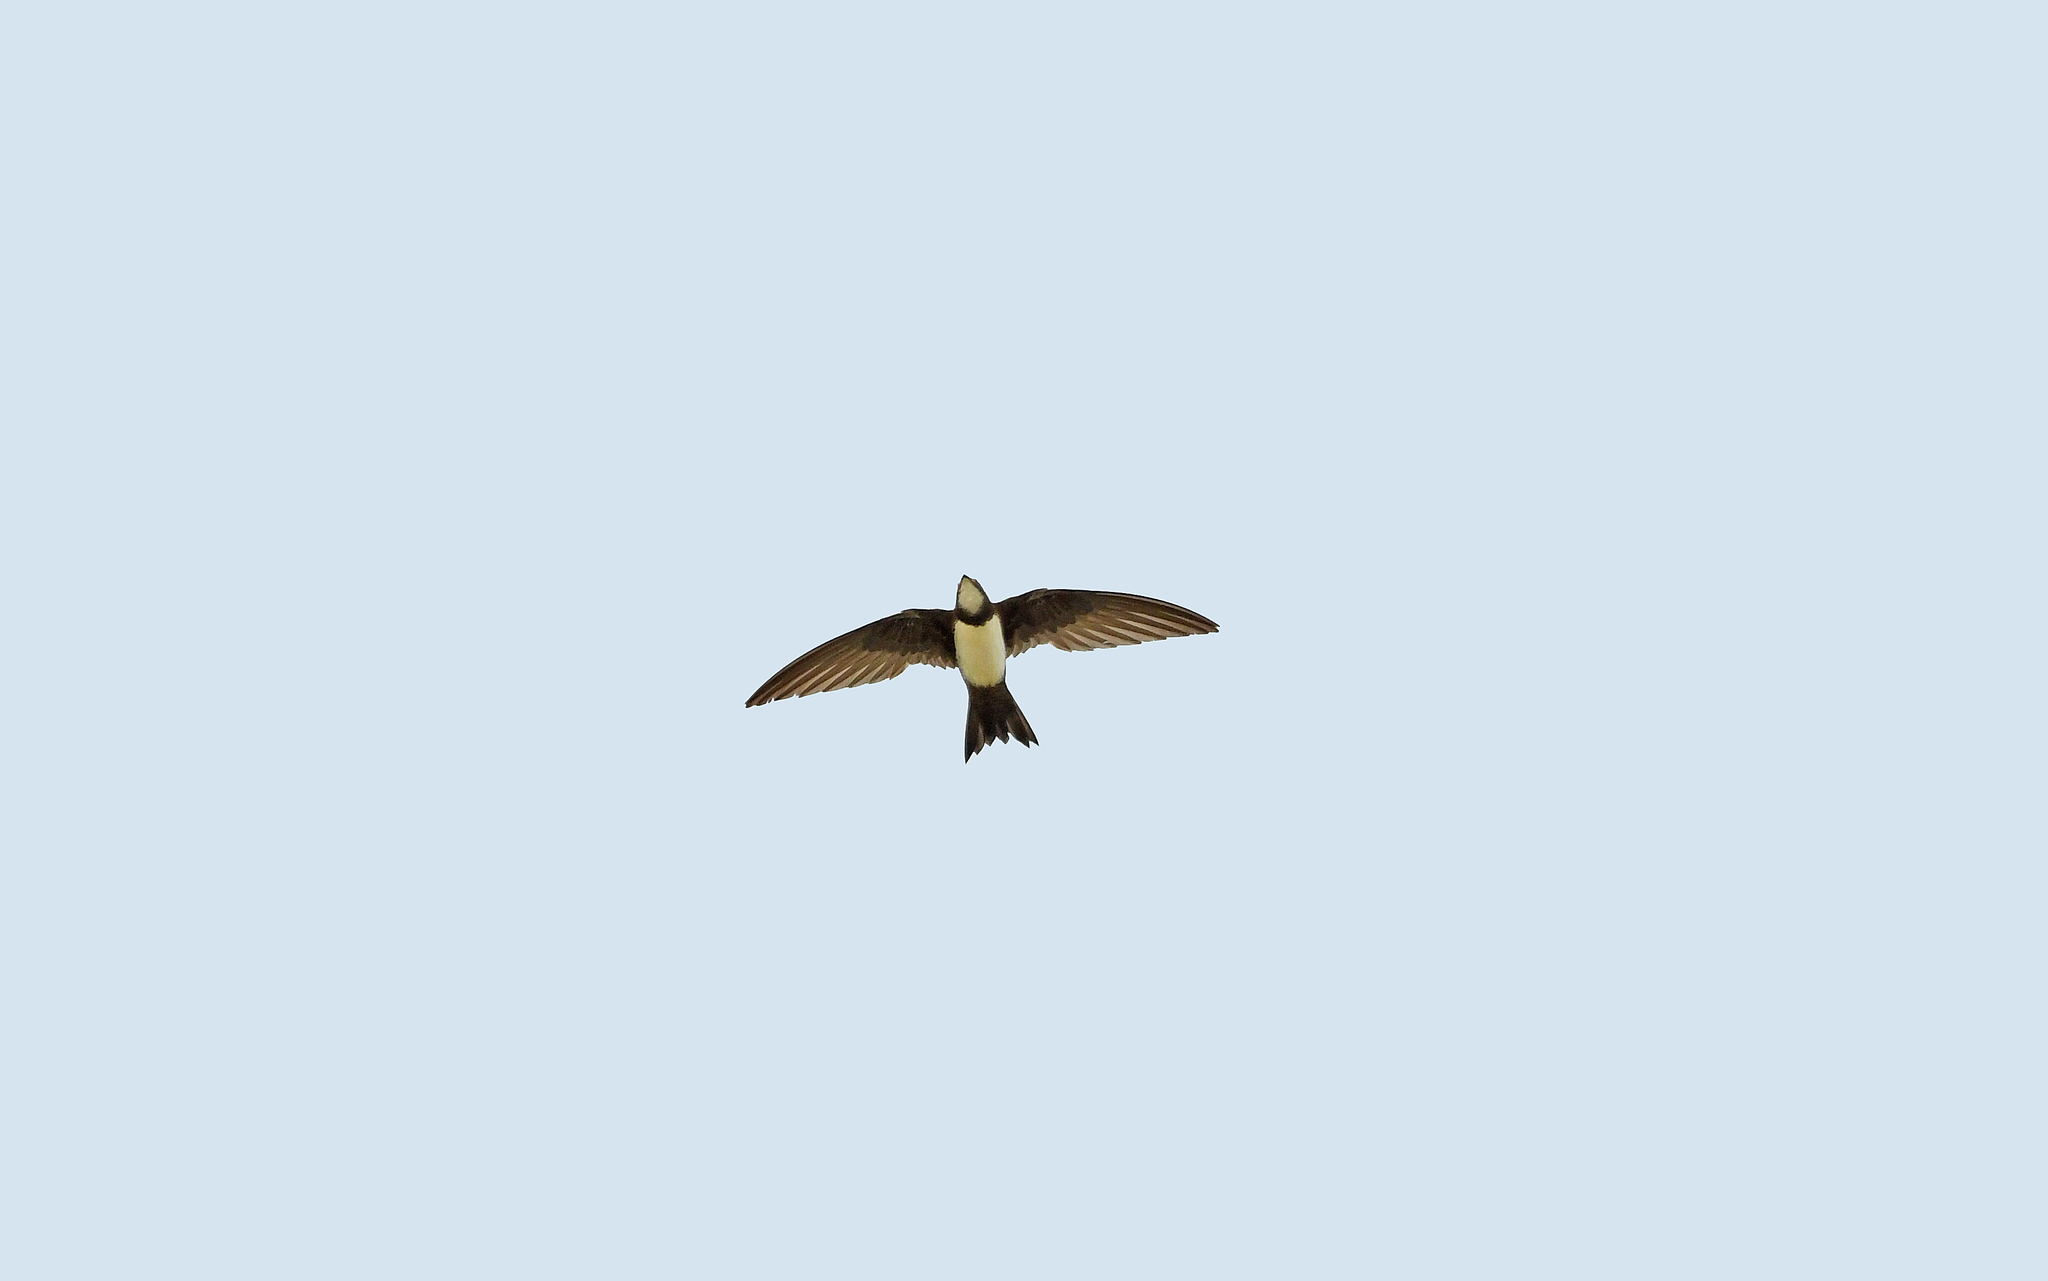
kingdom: Animalia
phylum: Chordata
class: Aves
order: Apodiformes
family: Apodidae
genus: Tachymarptis
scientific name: Tachymarptis melba
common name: Alpine swift
